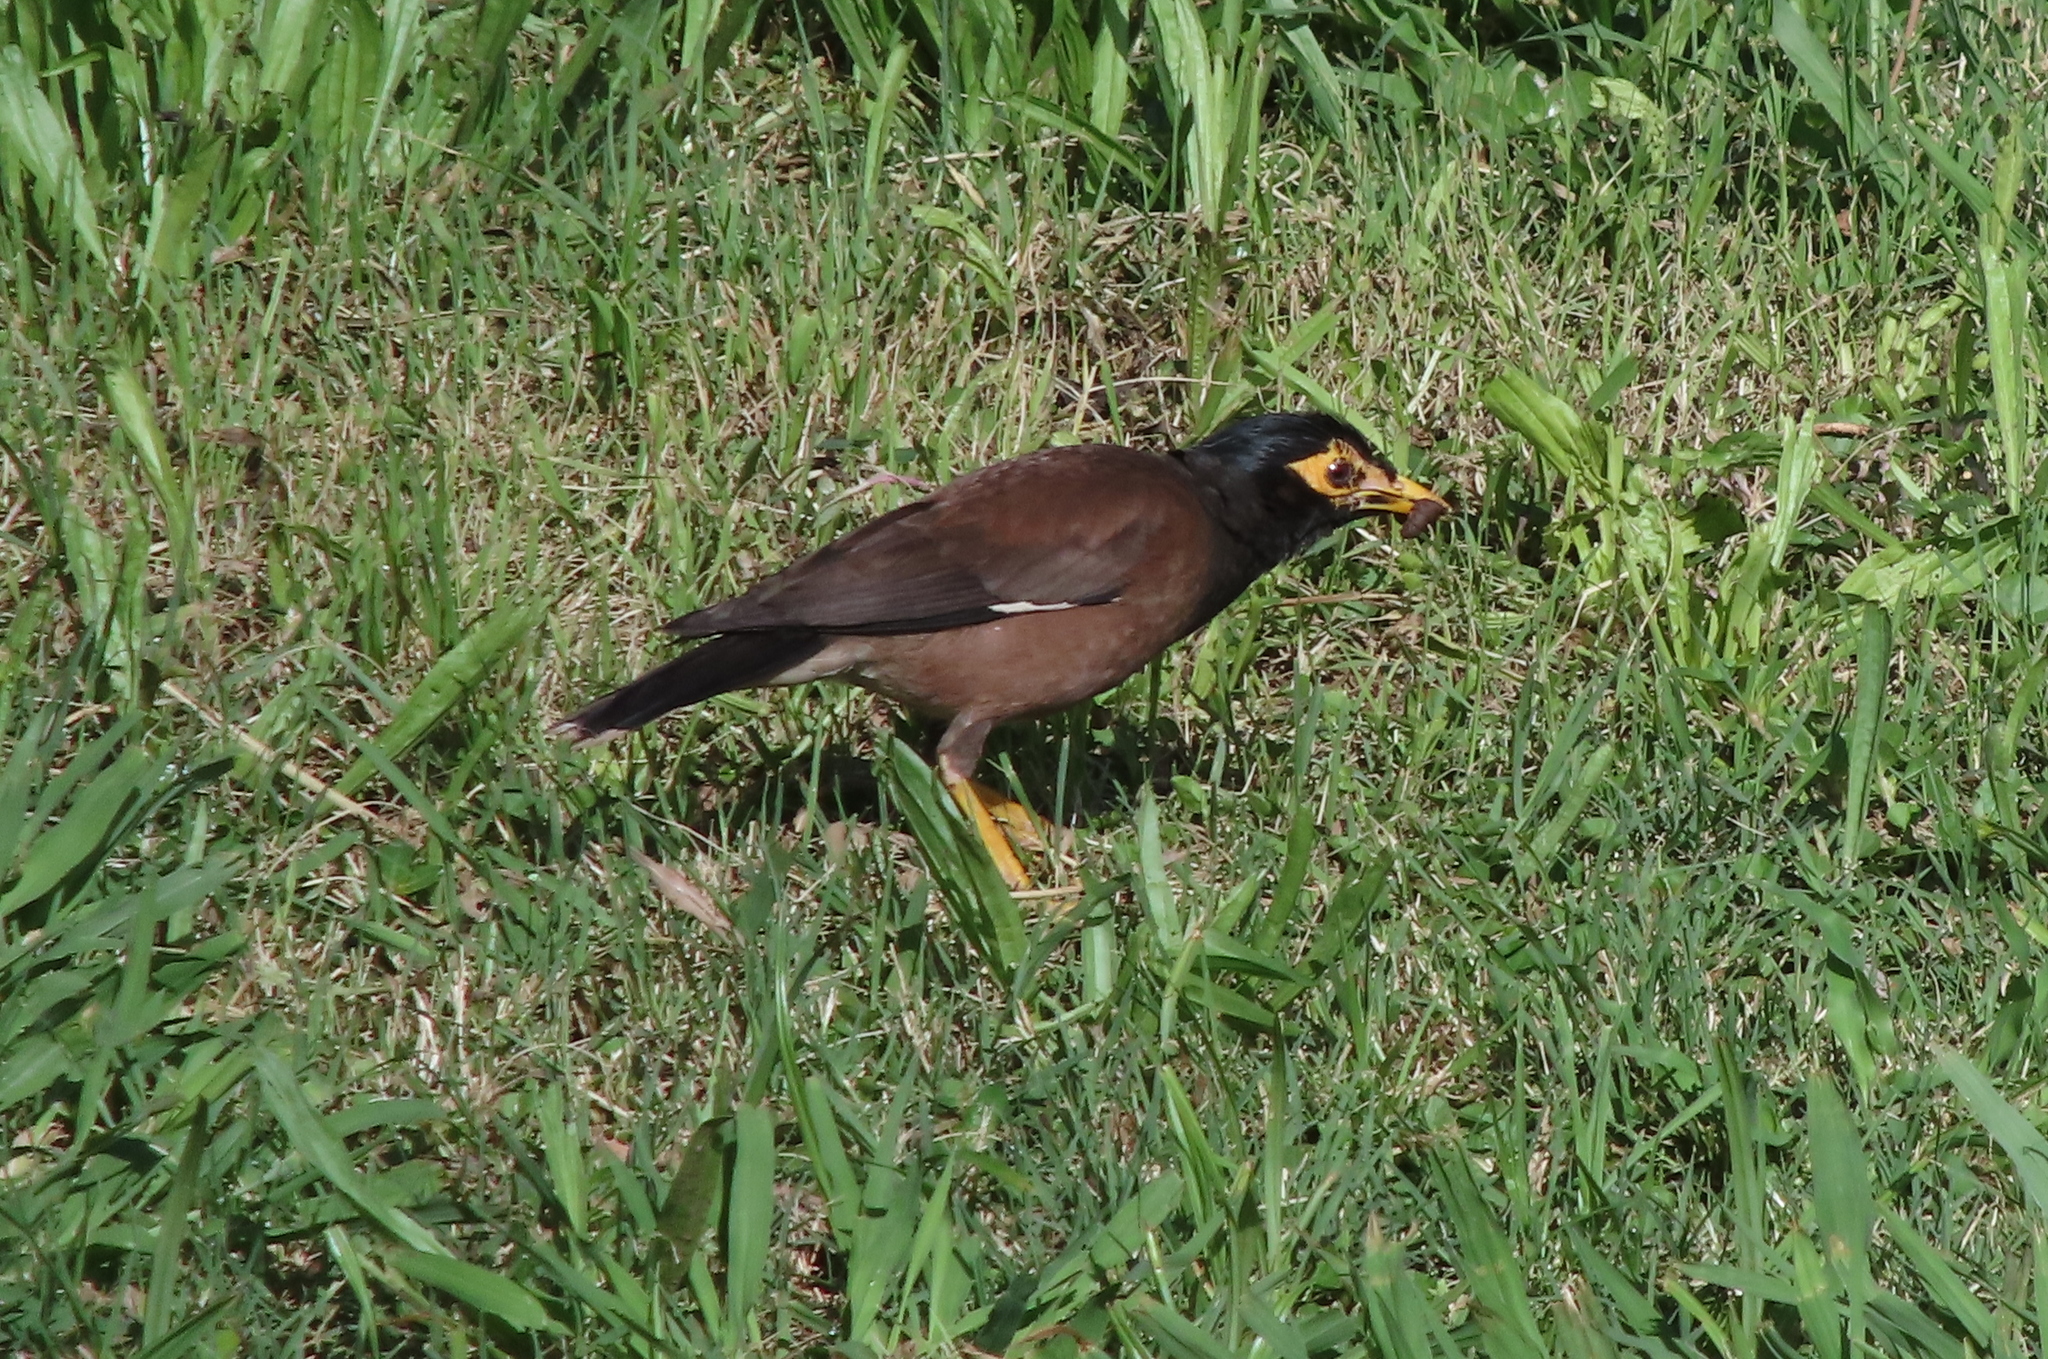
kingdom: Animalia
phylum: Chordata
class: Aves
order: Passeriformes
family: Sturnidae
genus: Acridotheres
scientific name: Acridotheres tristis
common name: Common myna
